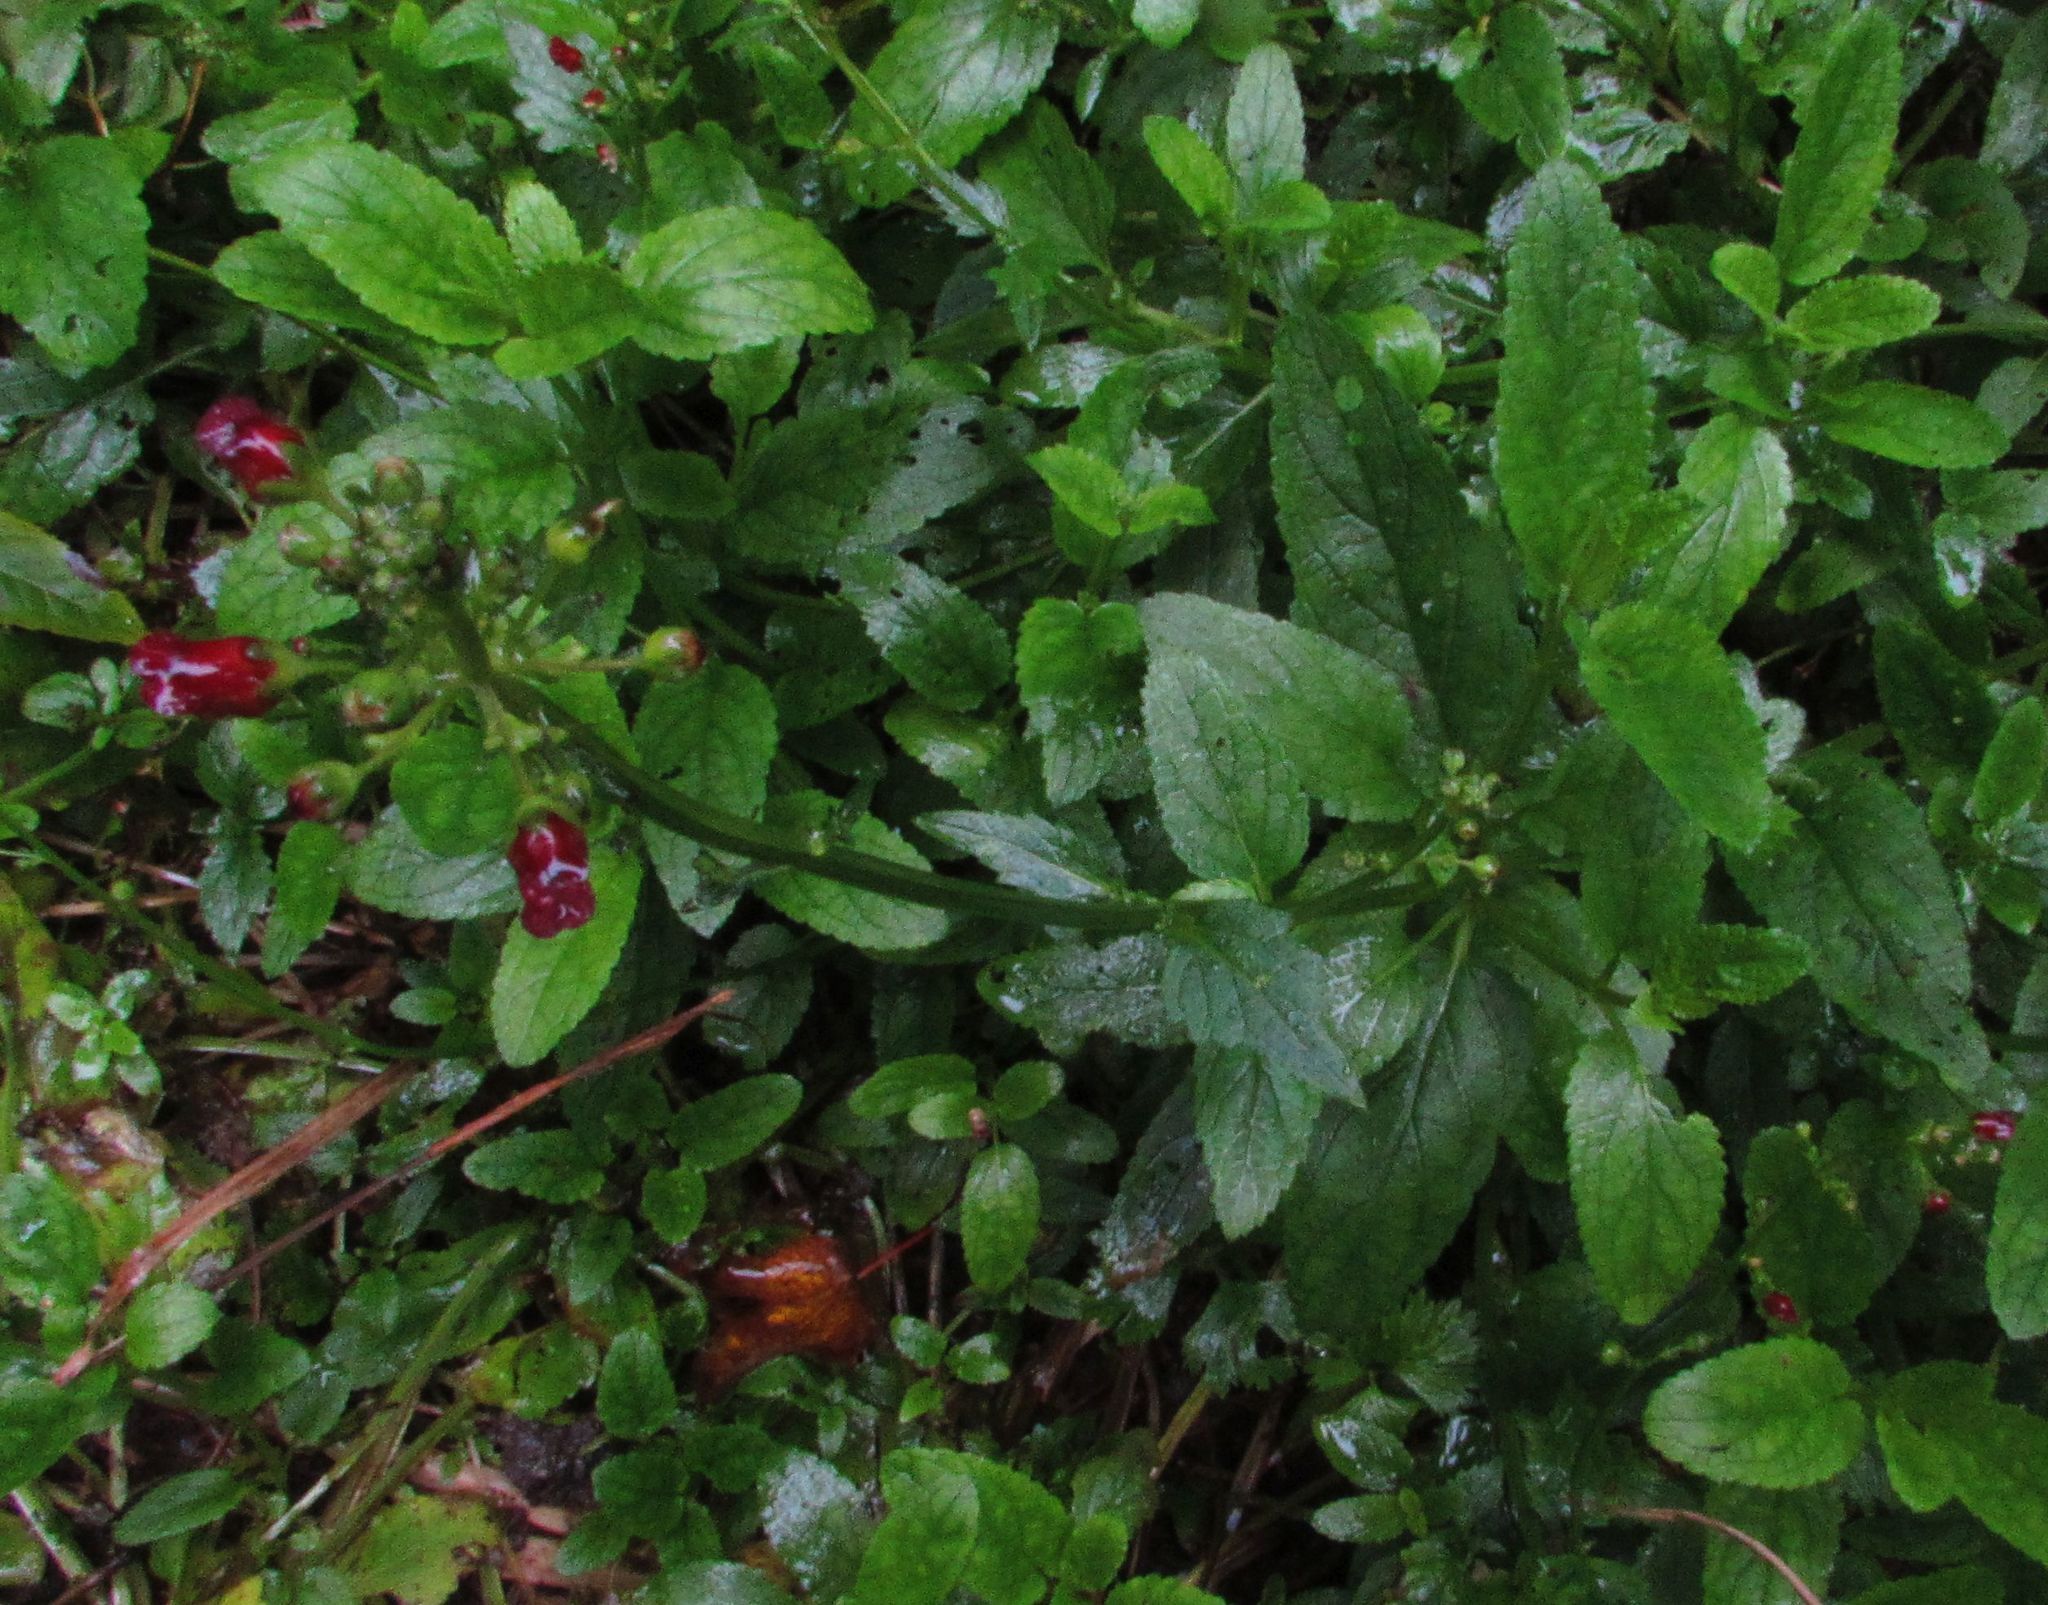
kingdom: Plantae
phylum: Tracheophyta
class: Magnoliopsida
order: Lamiales
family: Scrophulariaceae
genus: Scrophularia
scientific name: Scrophularia auriculata
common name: Water betony
